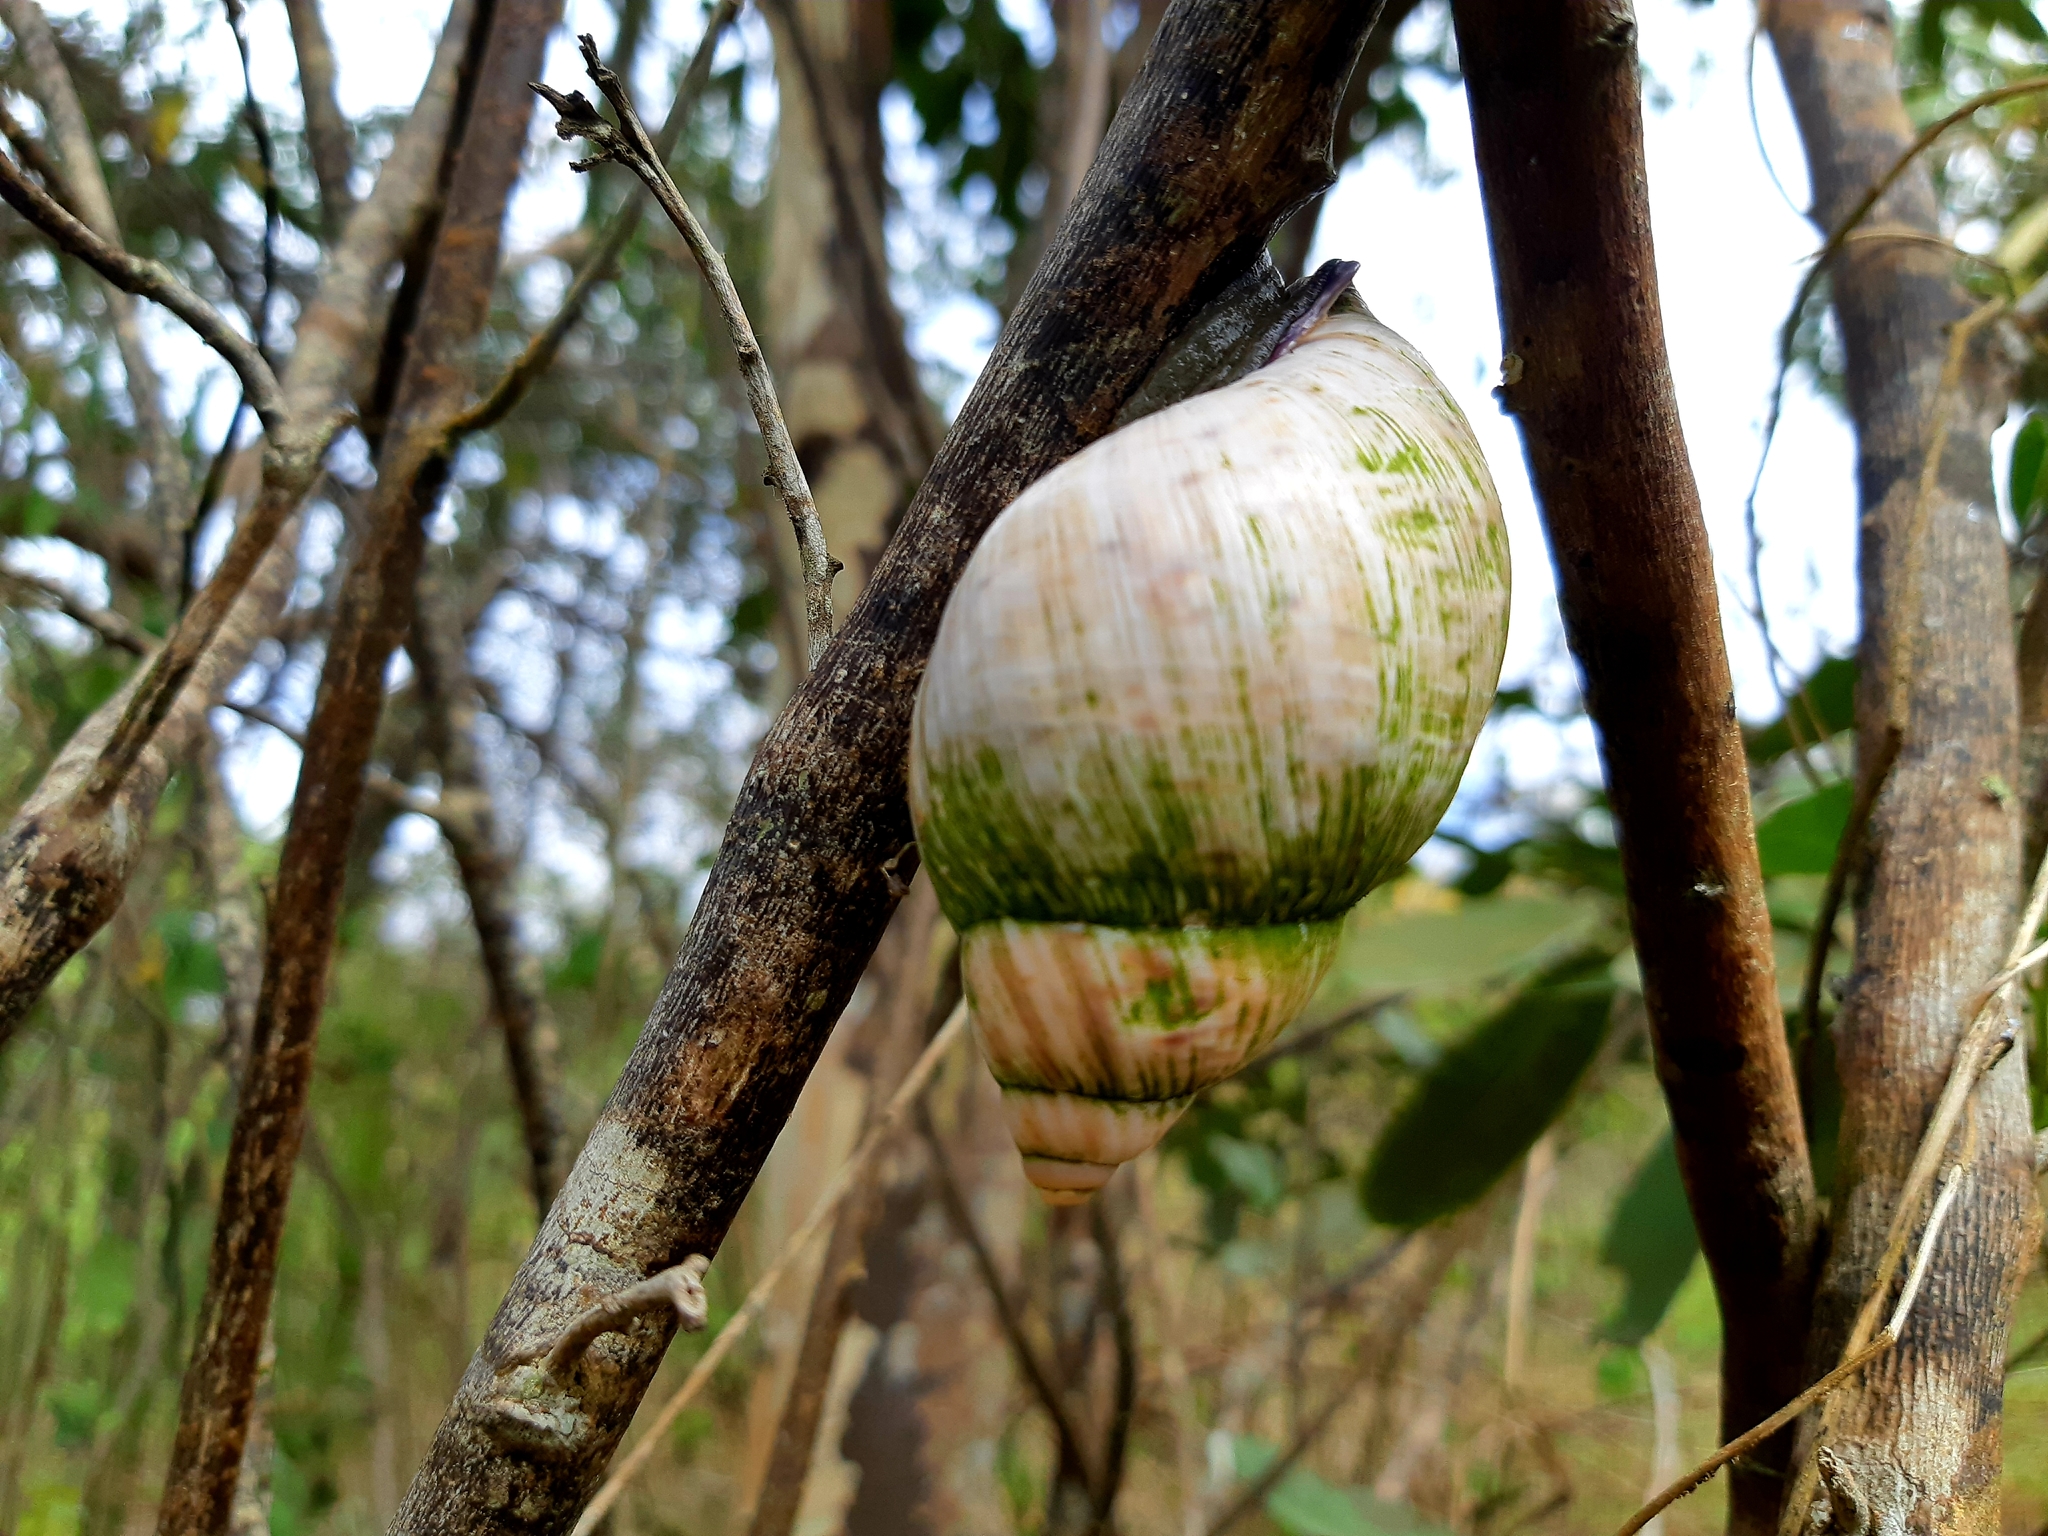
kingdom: Animalia
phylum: Mollusca
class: Gastropoda
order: Stylommatophora
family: Orthalicidae
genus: Porphyrobaphe
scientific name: Porphyrobaphe iostoma
